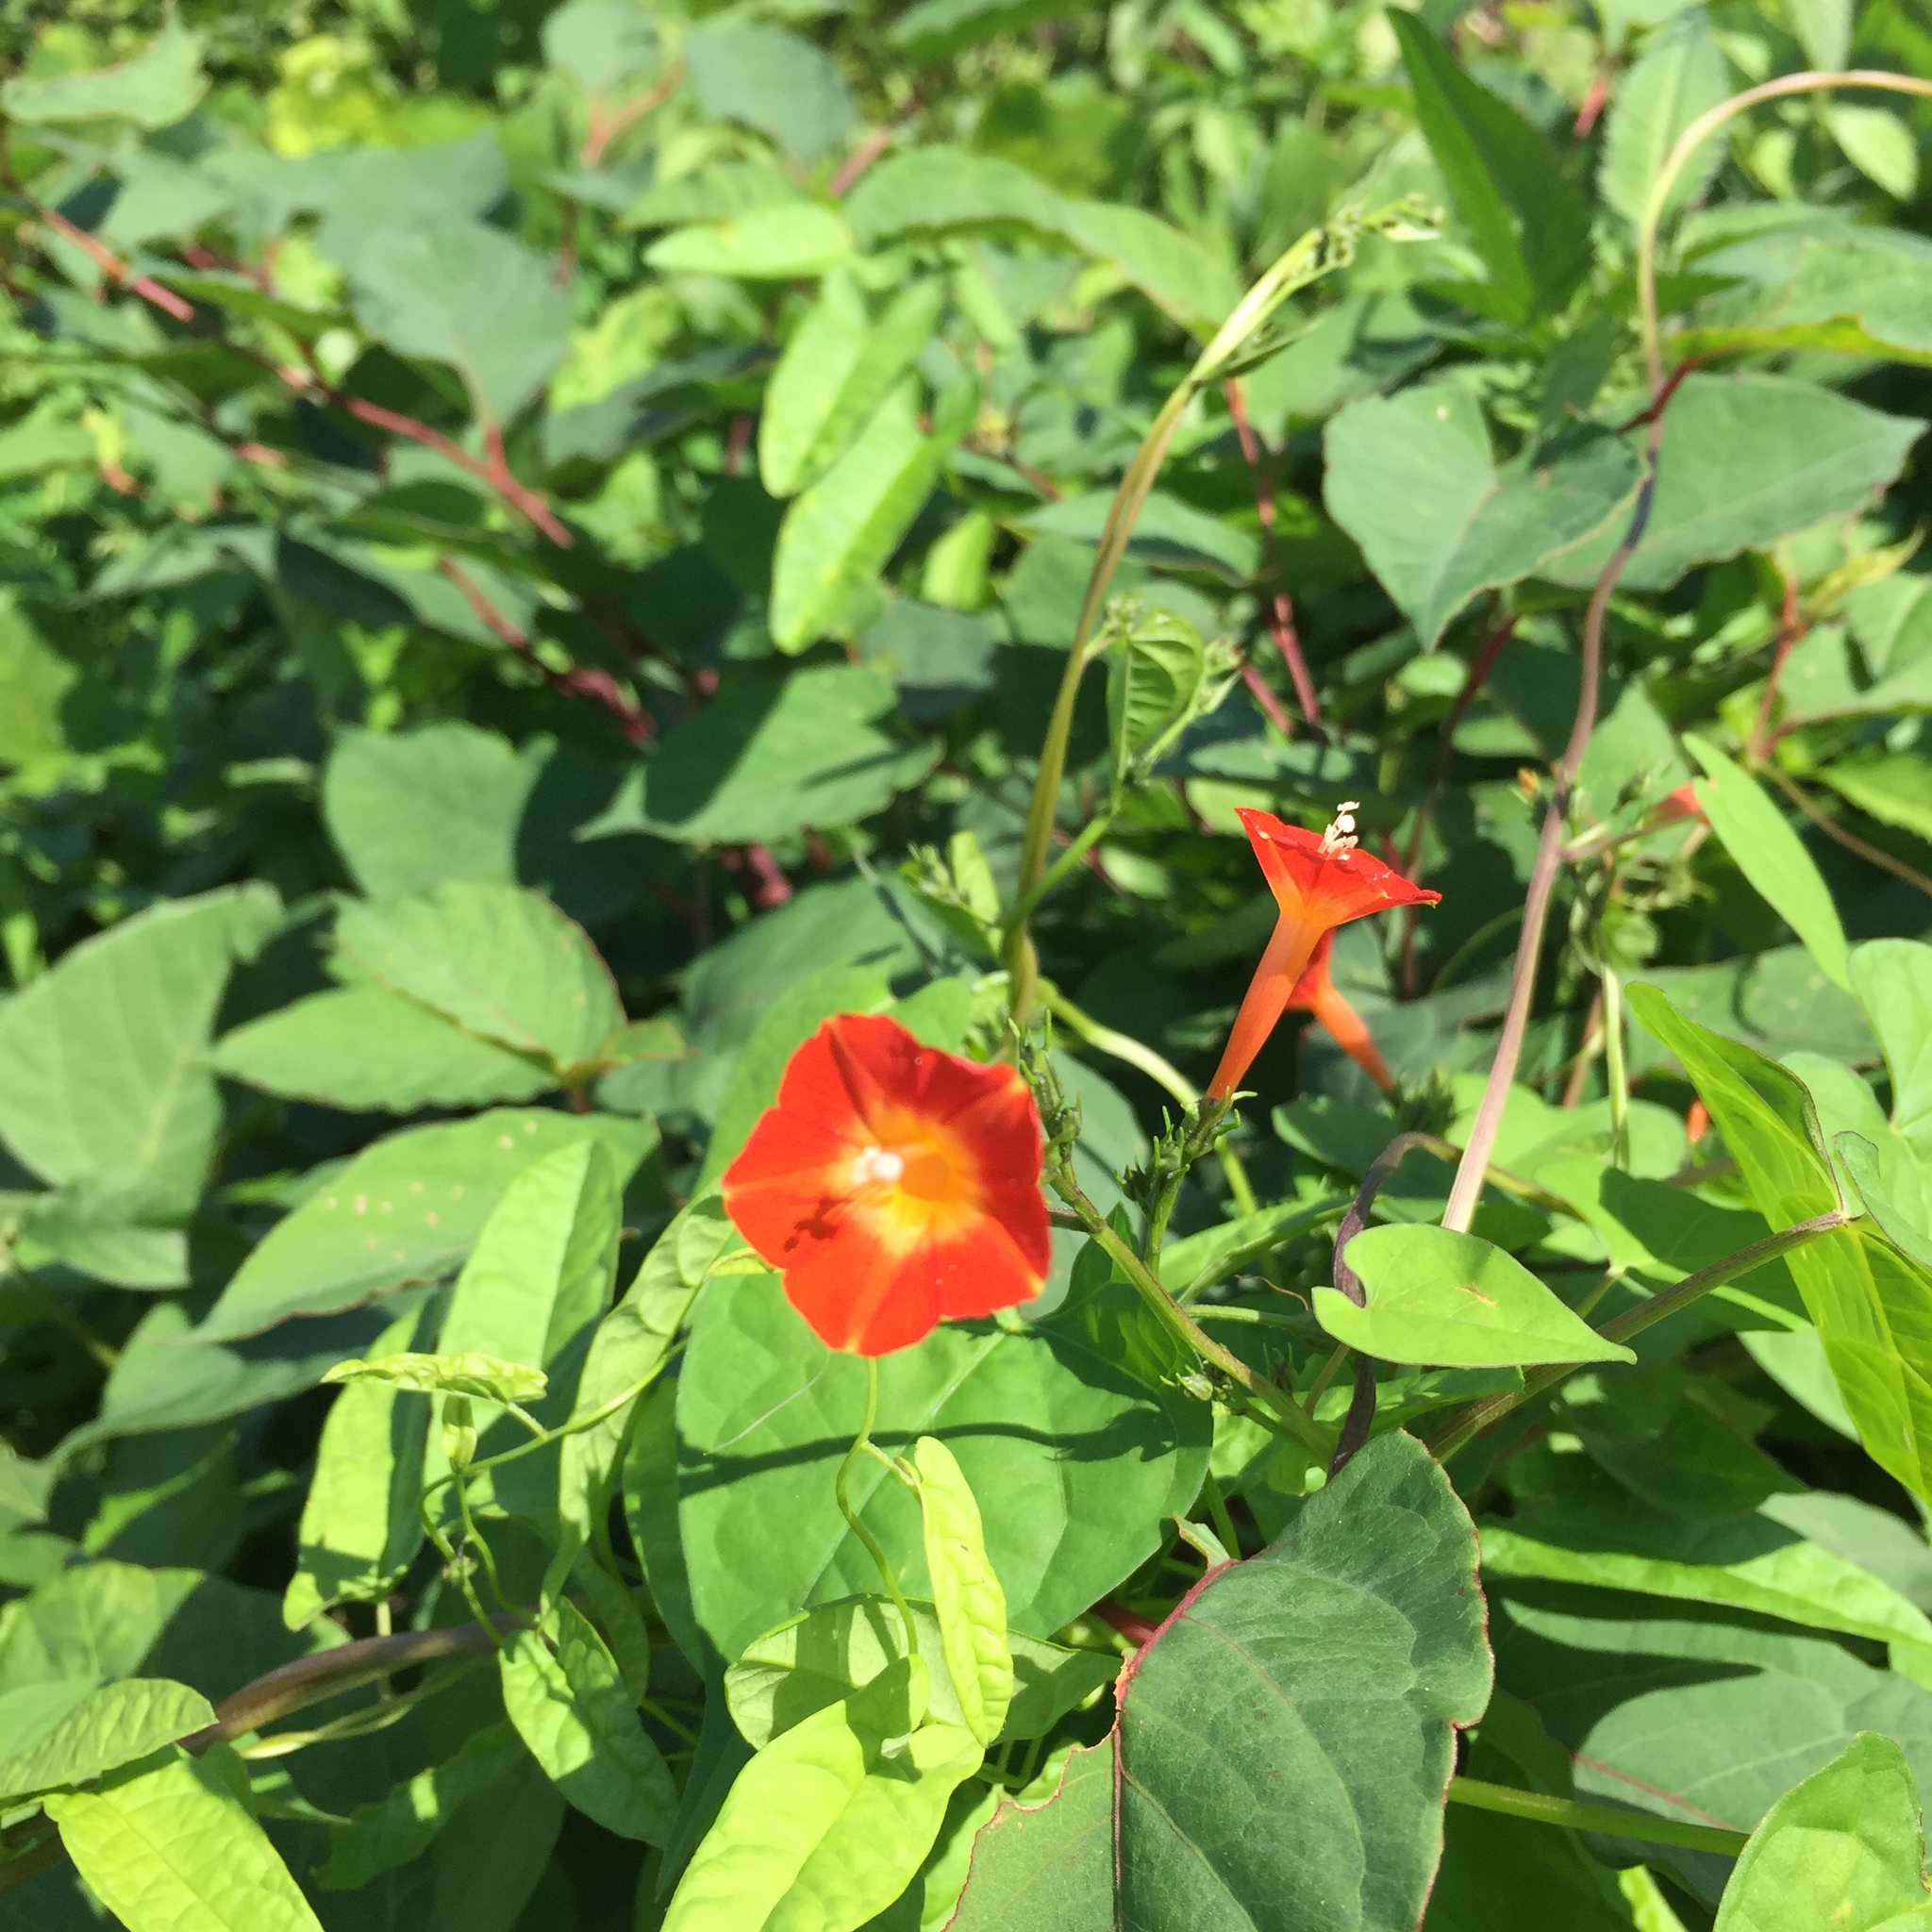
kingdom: Plantae
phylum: Tracheophyta
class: Magnoliopsida
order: Solanales
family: Convolvulaceae
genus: Ipomoea
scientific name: Ipomoea coccinea
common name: Red morning-glory
